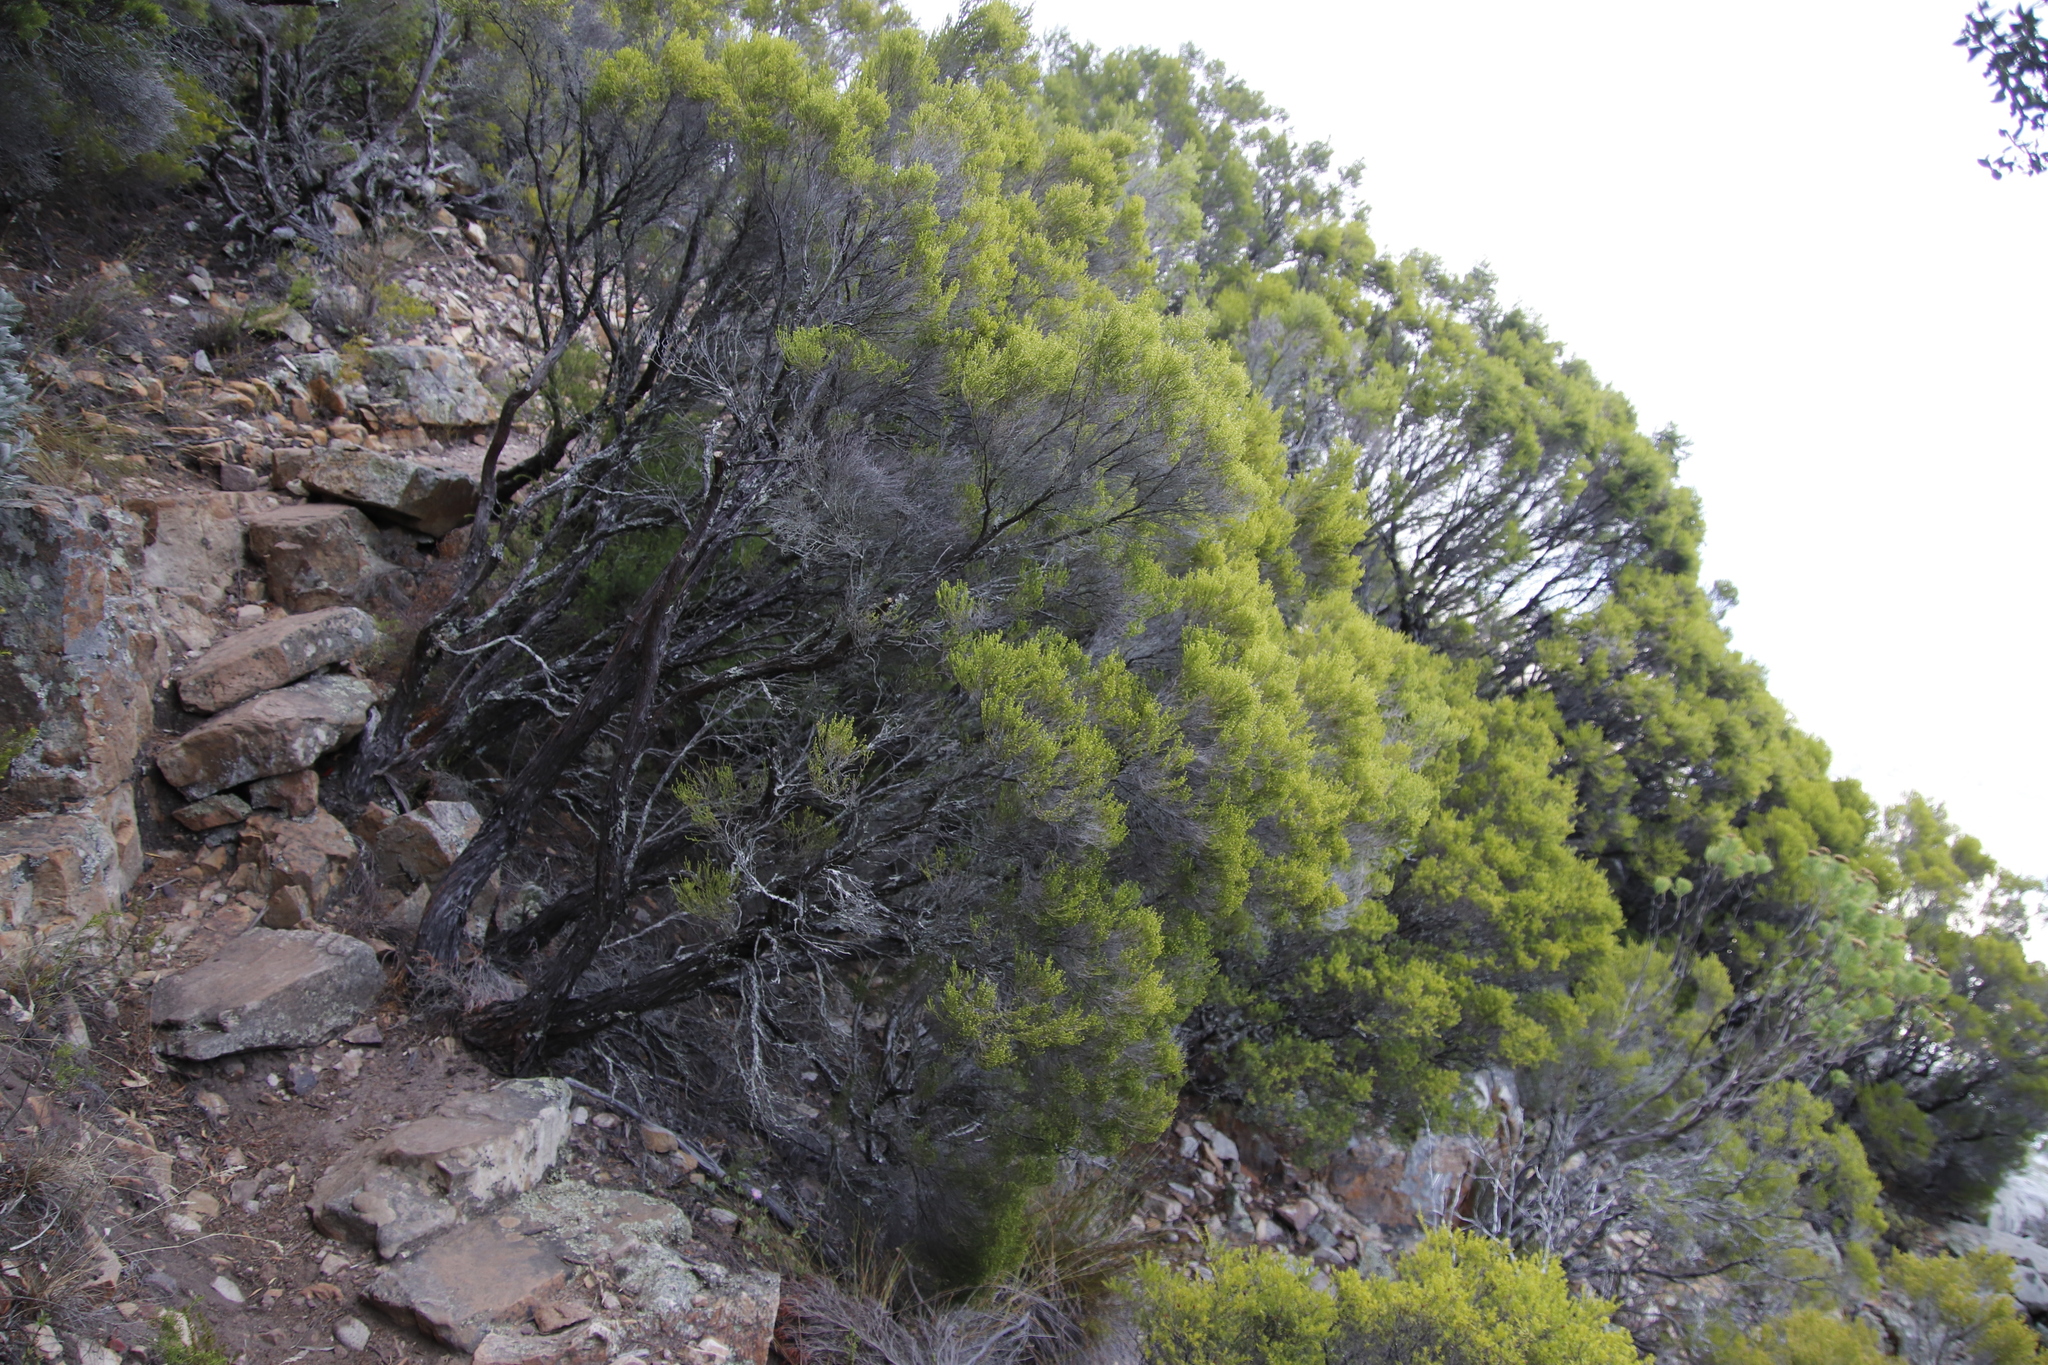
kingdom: Plantae
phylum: Tracheophyta
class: Magnoliopsida
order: Ericales
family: Ericaceae
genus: Erica
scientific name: Erica tristis
